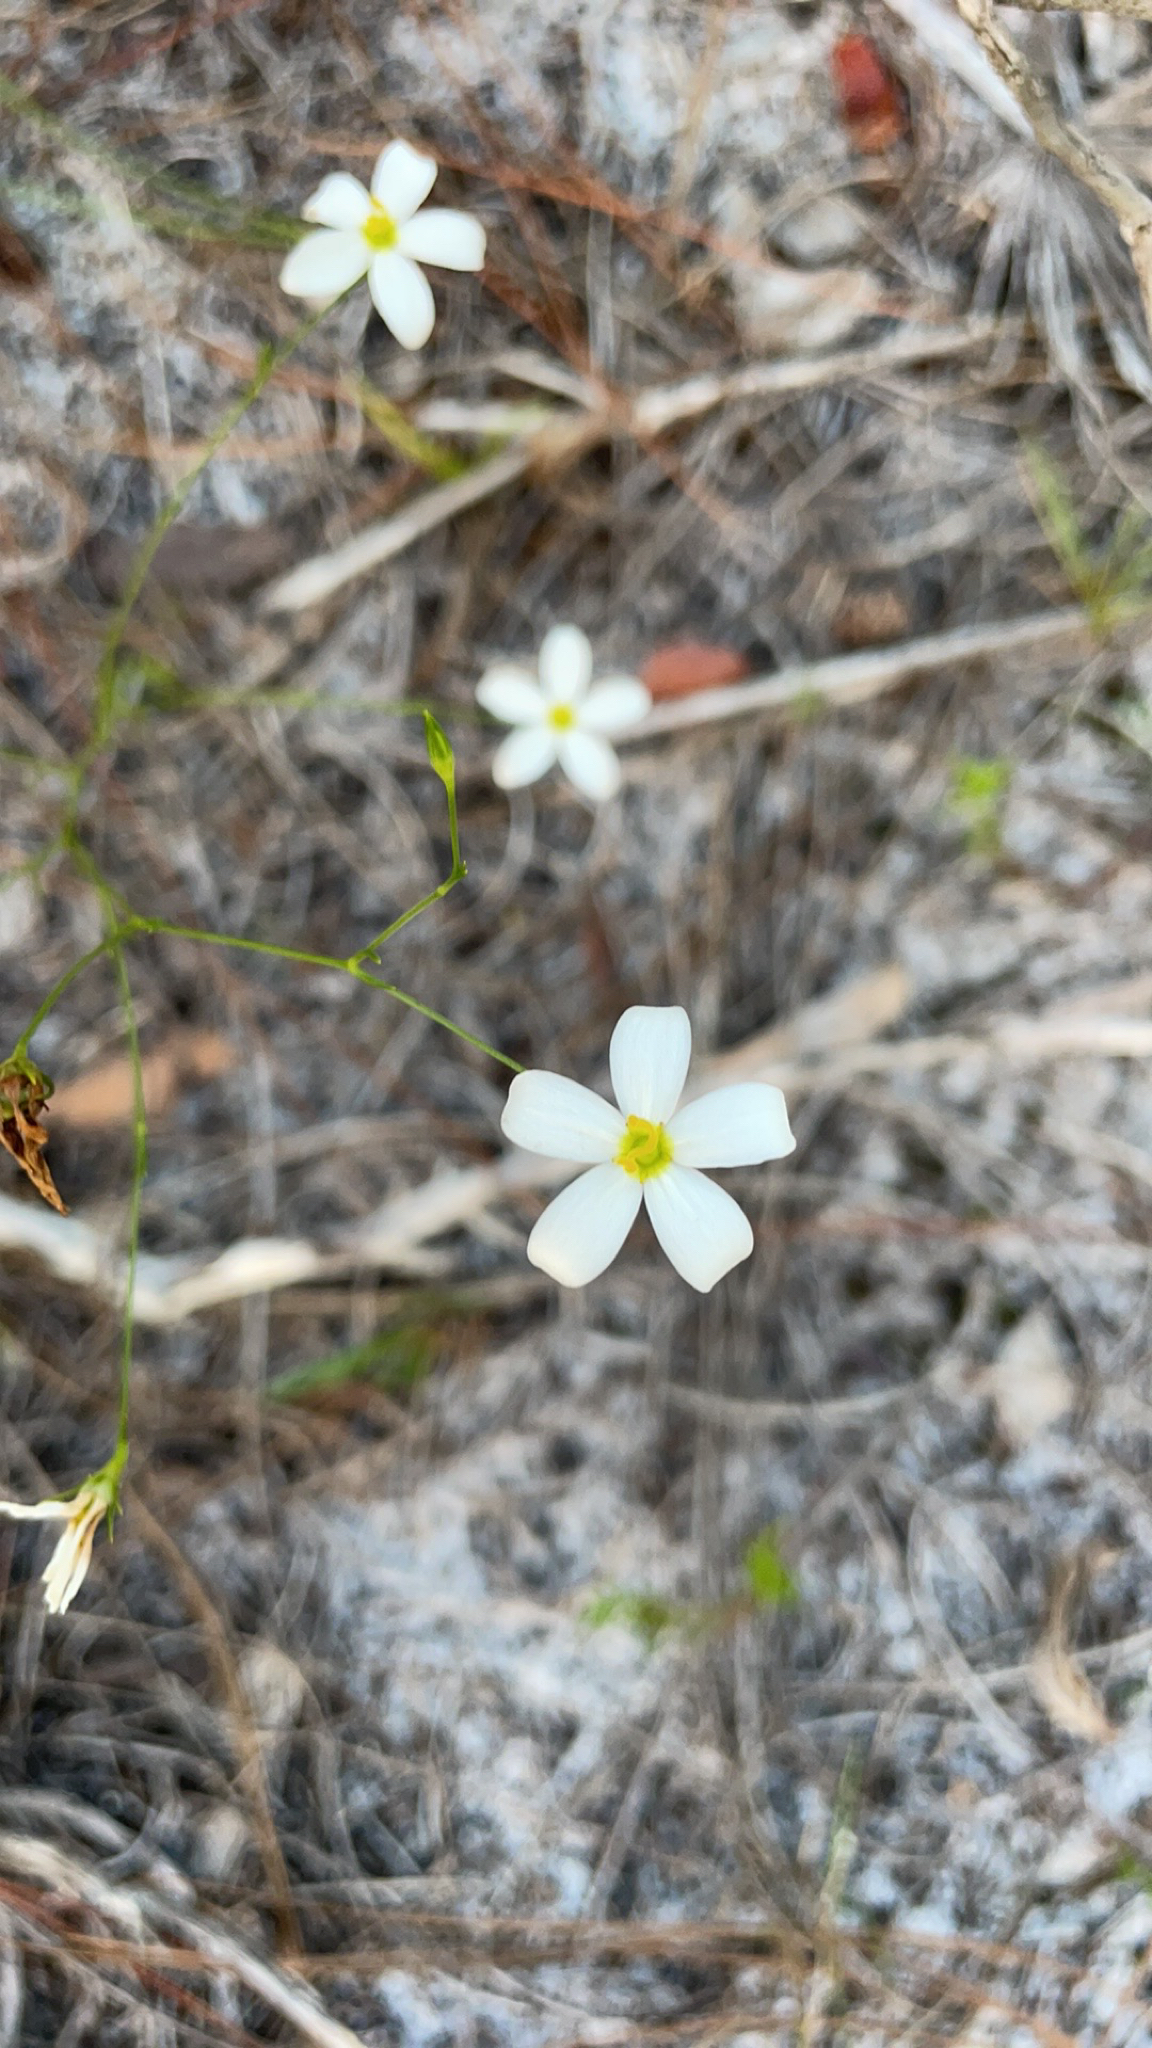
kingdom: Plantae
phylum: Tracheophyta
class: Magnoliopsida
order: Gentianales
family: Gentianaceae
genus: Sabatia
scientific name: Sabatia brevifolia
